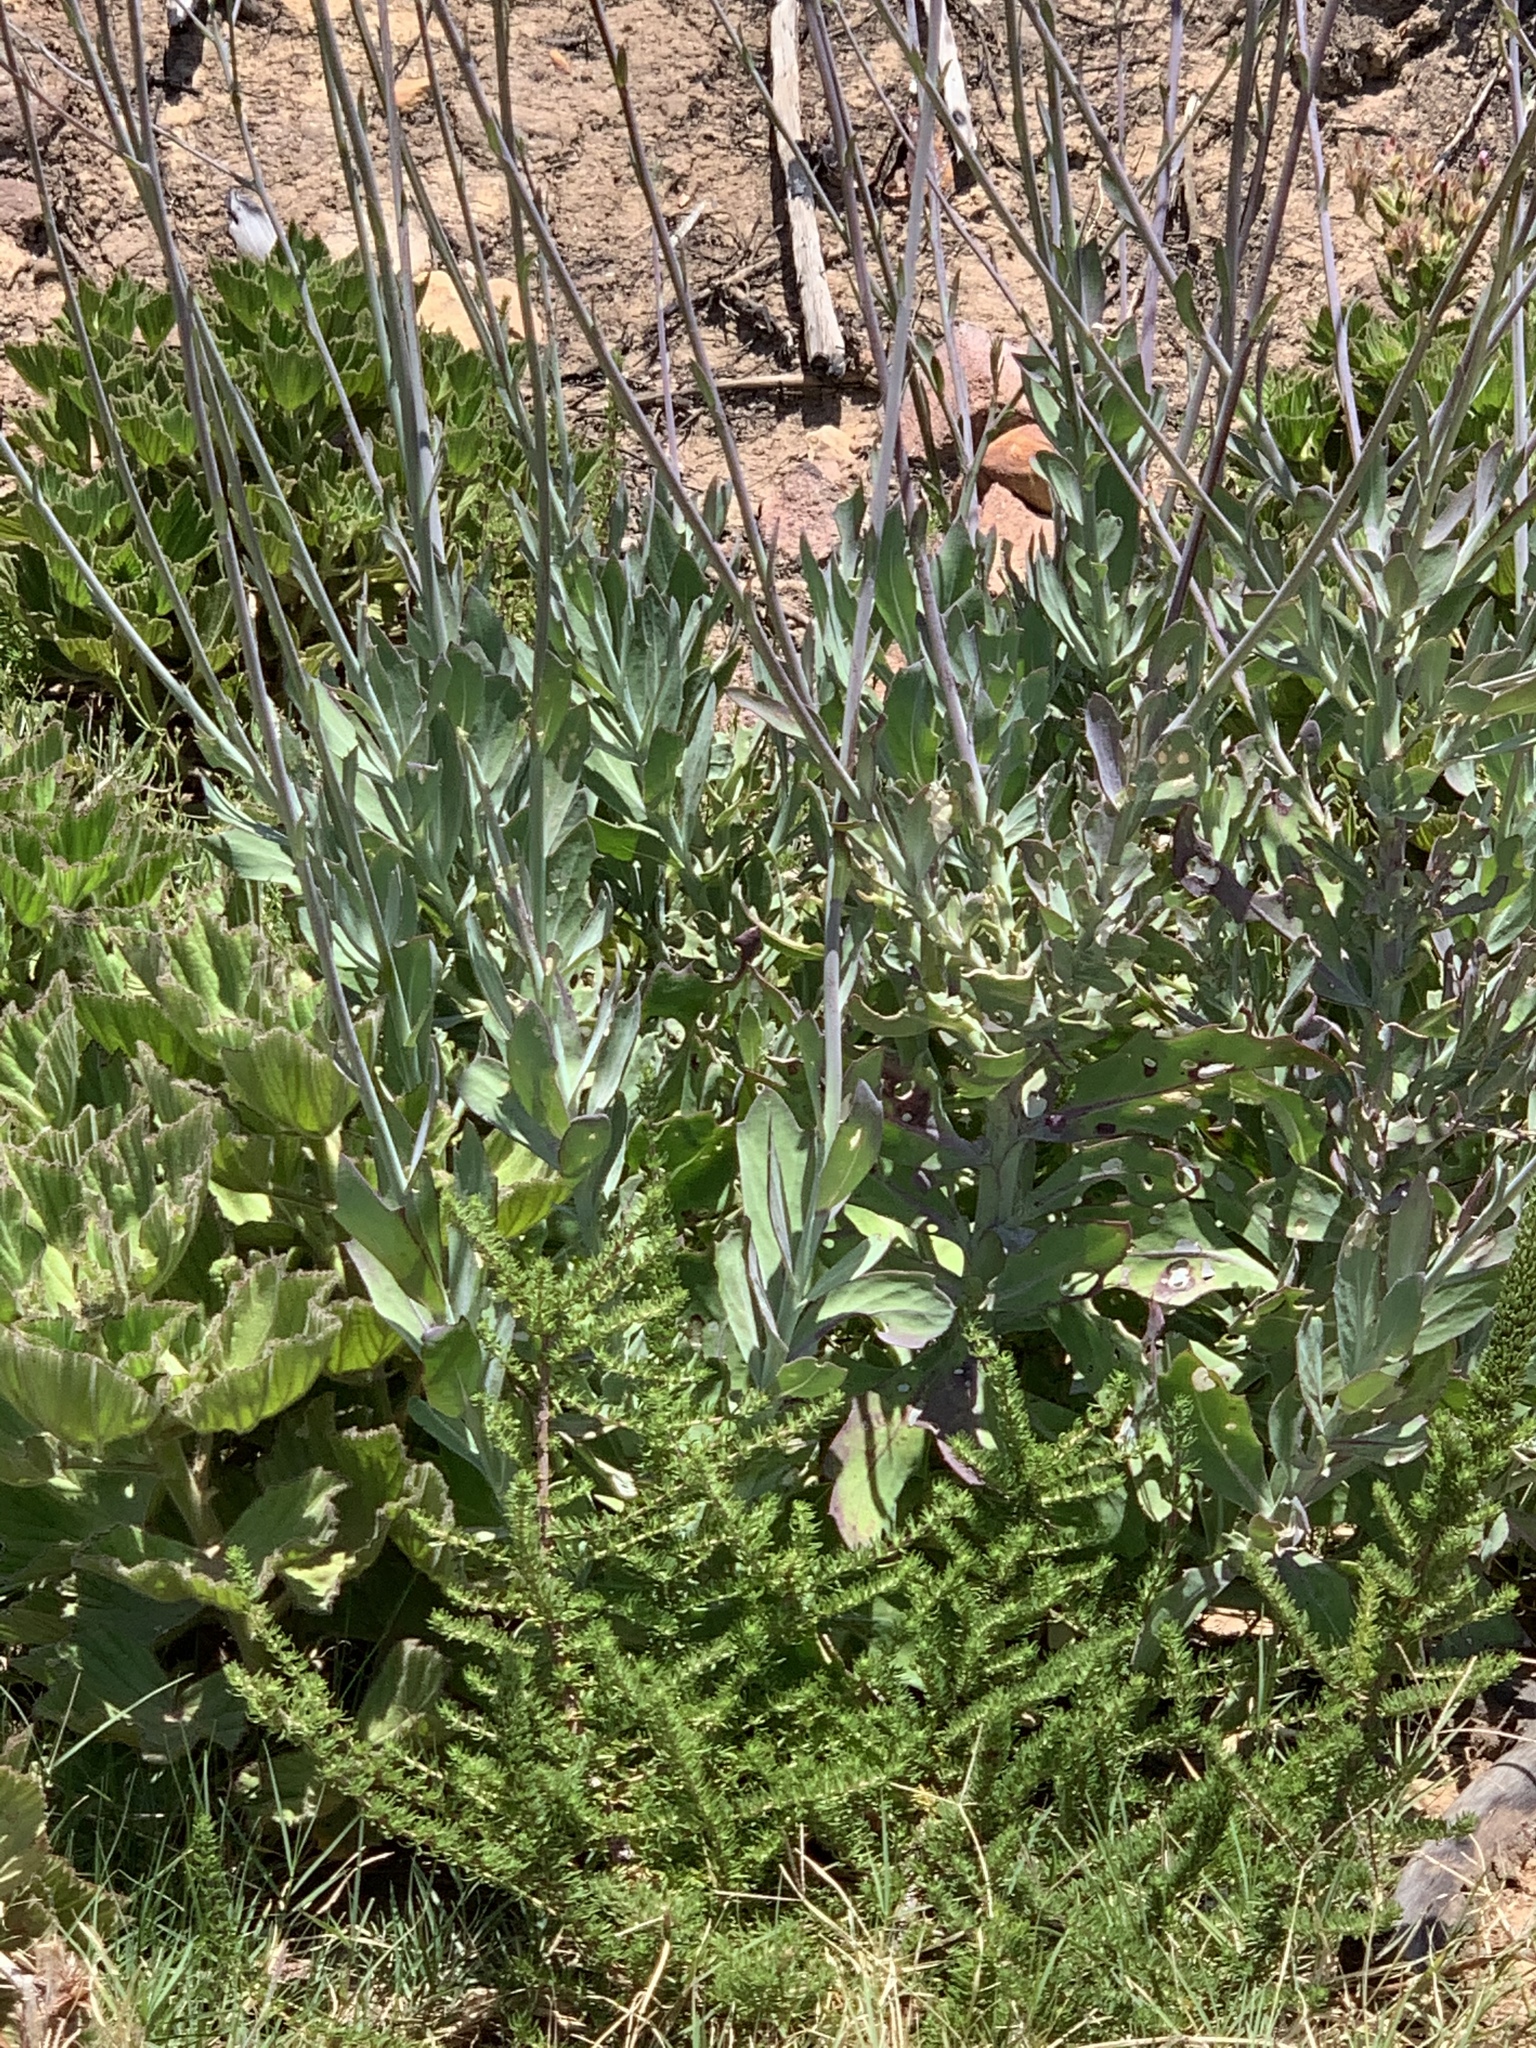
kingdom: Plantae
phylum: Tracheophyta
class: Magnoliopsida
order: Asterales
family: Asteraceae
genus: Othonna
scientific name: Othonna quinquedentata
